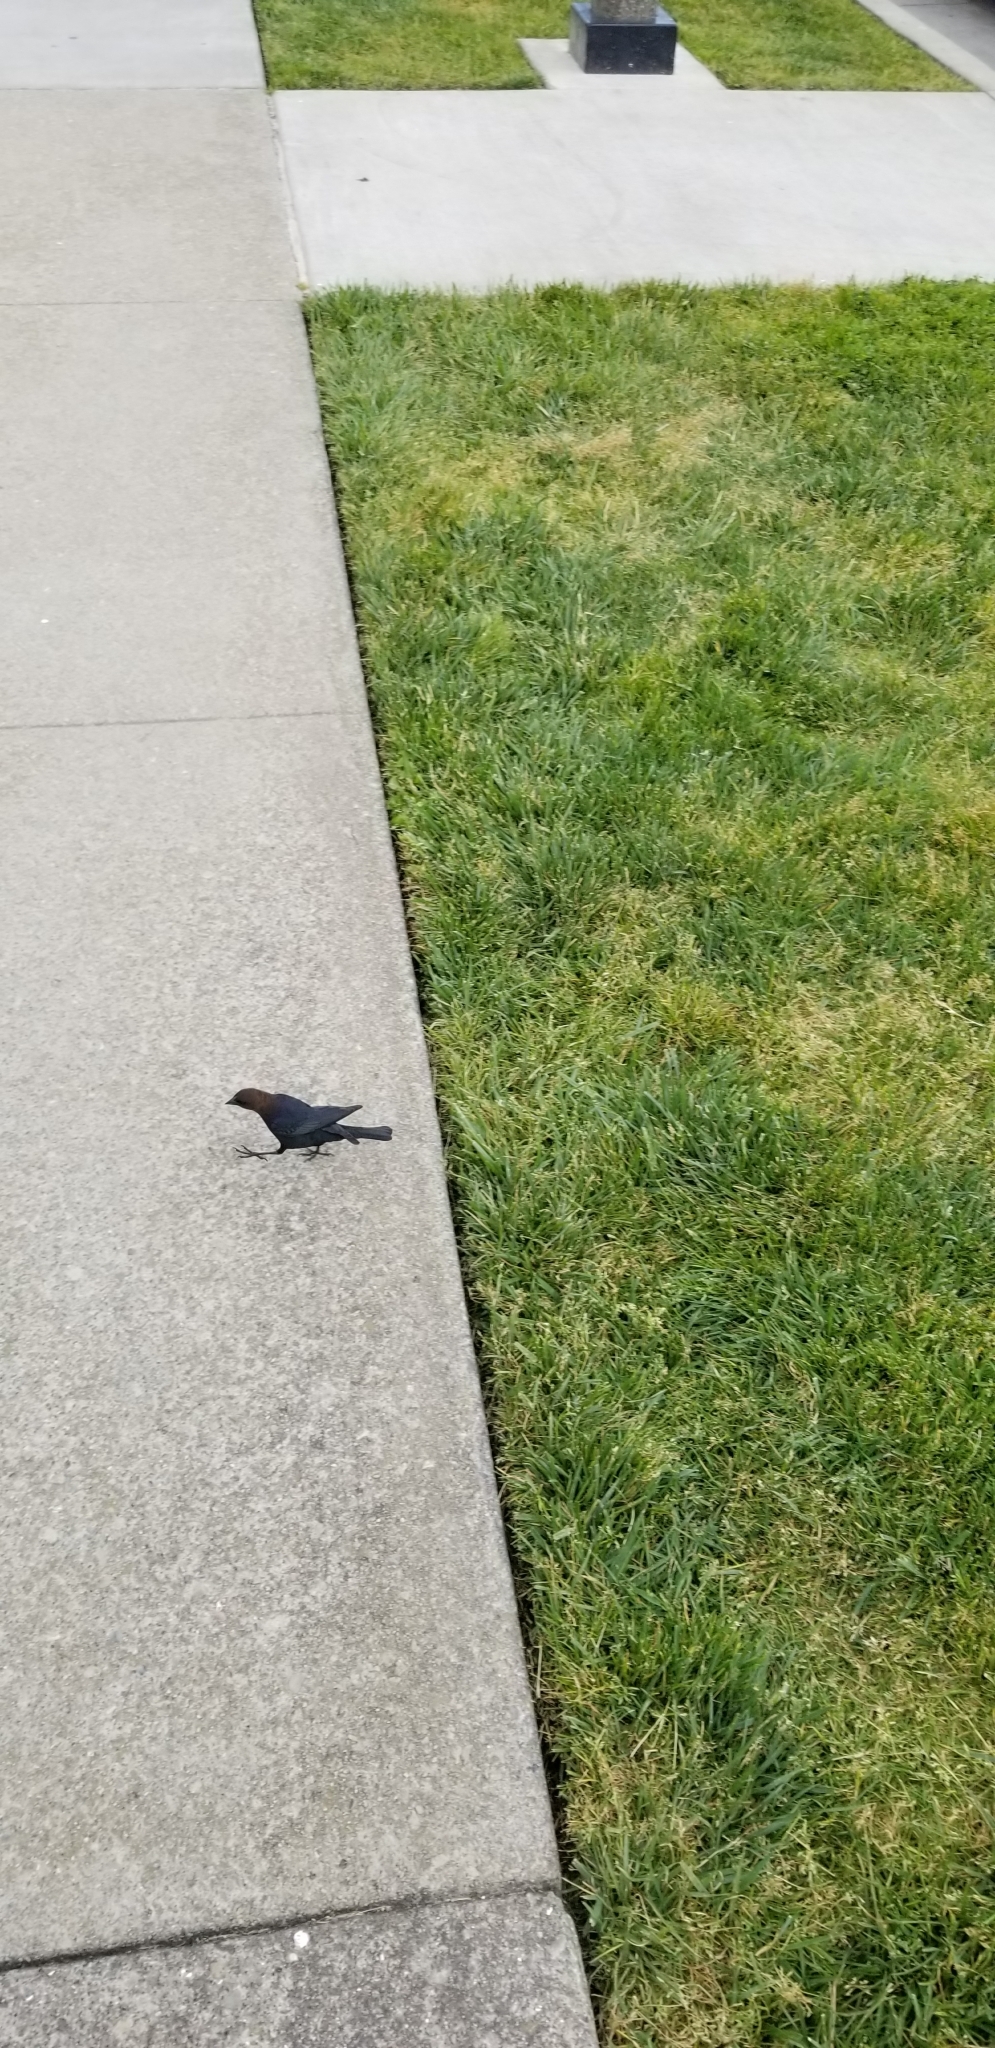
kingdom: Animalia
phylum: Chordata
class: Aves
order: Passeriformes
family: Icteridae
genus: Molothrus
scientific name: Molothrus ater
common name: Brown-headed cowbird
